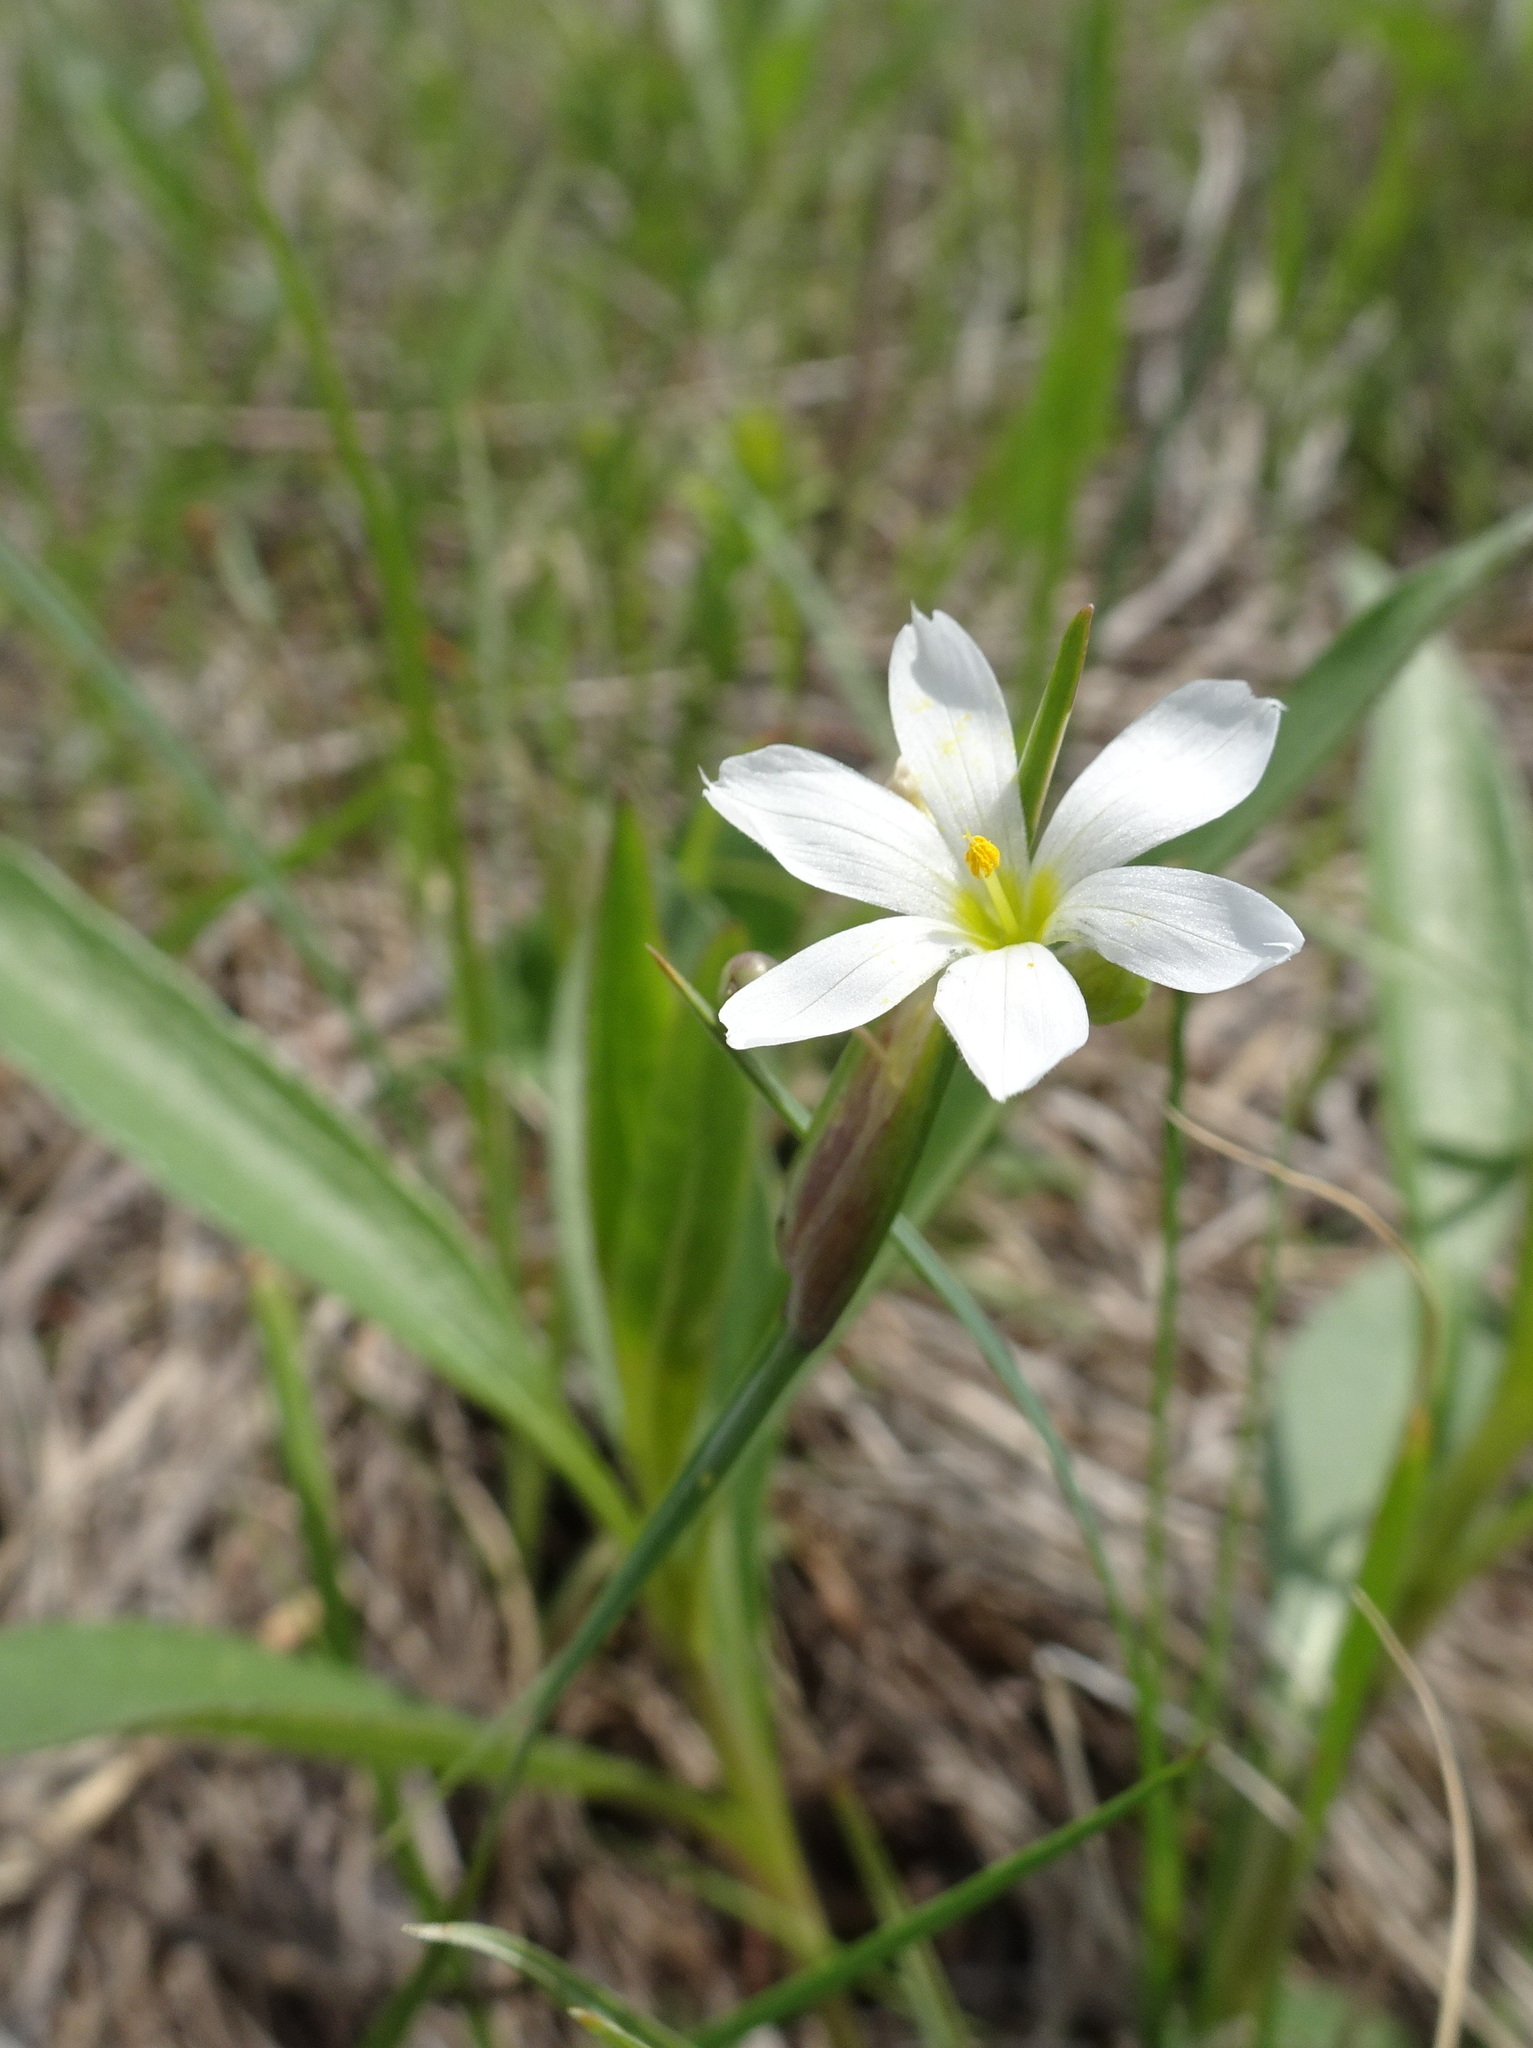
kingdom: Plantae
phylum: Tracheophyta
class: Liliopsida
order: Asparagales
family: Iridaceae
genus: Sisyrinchium
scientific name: Sisyrinchium campestre
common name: Prairie blue-eyed-grass
